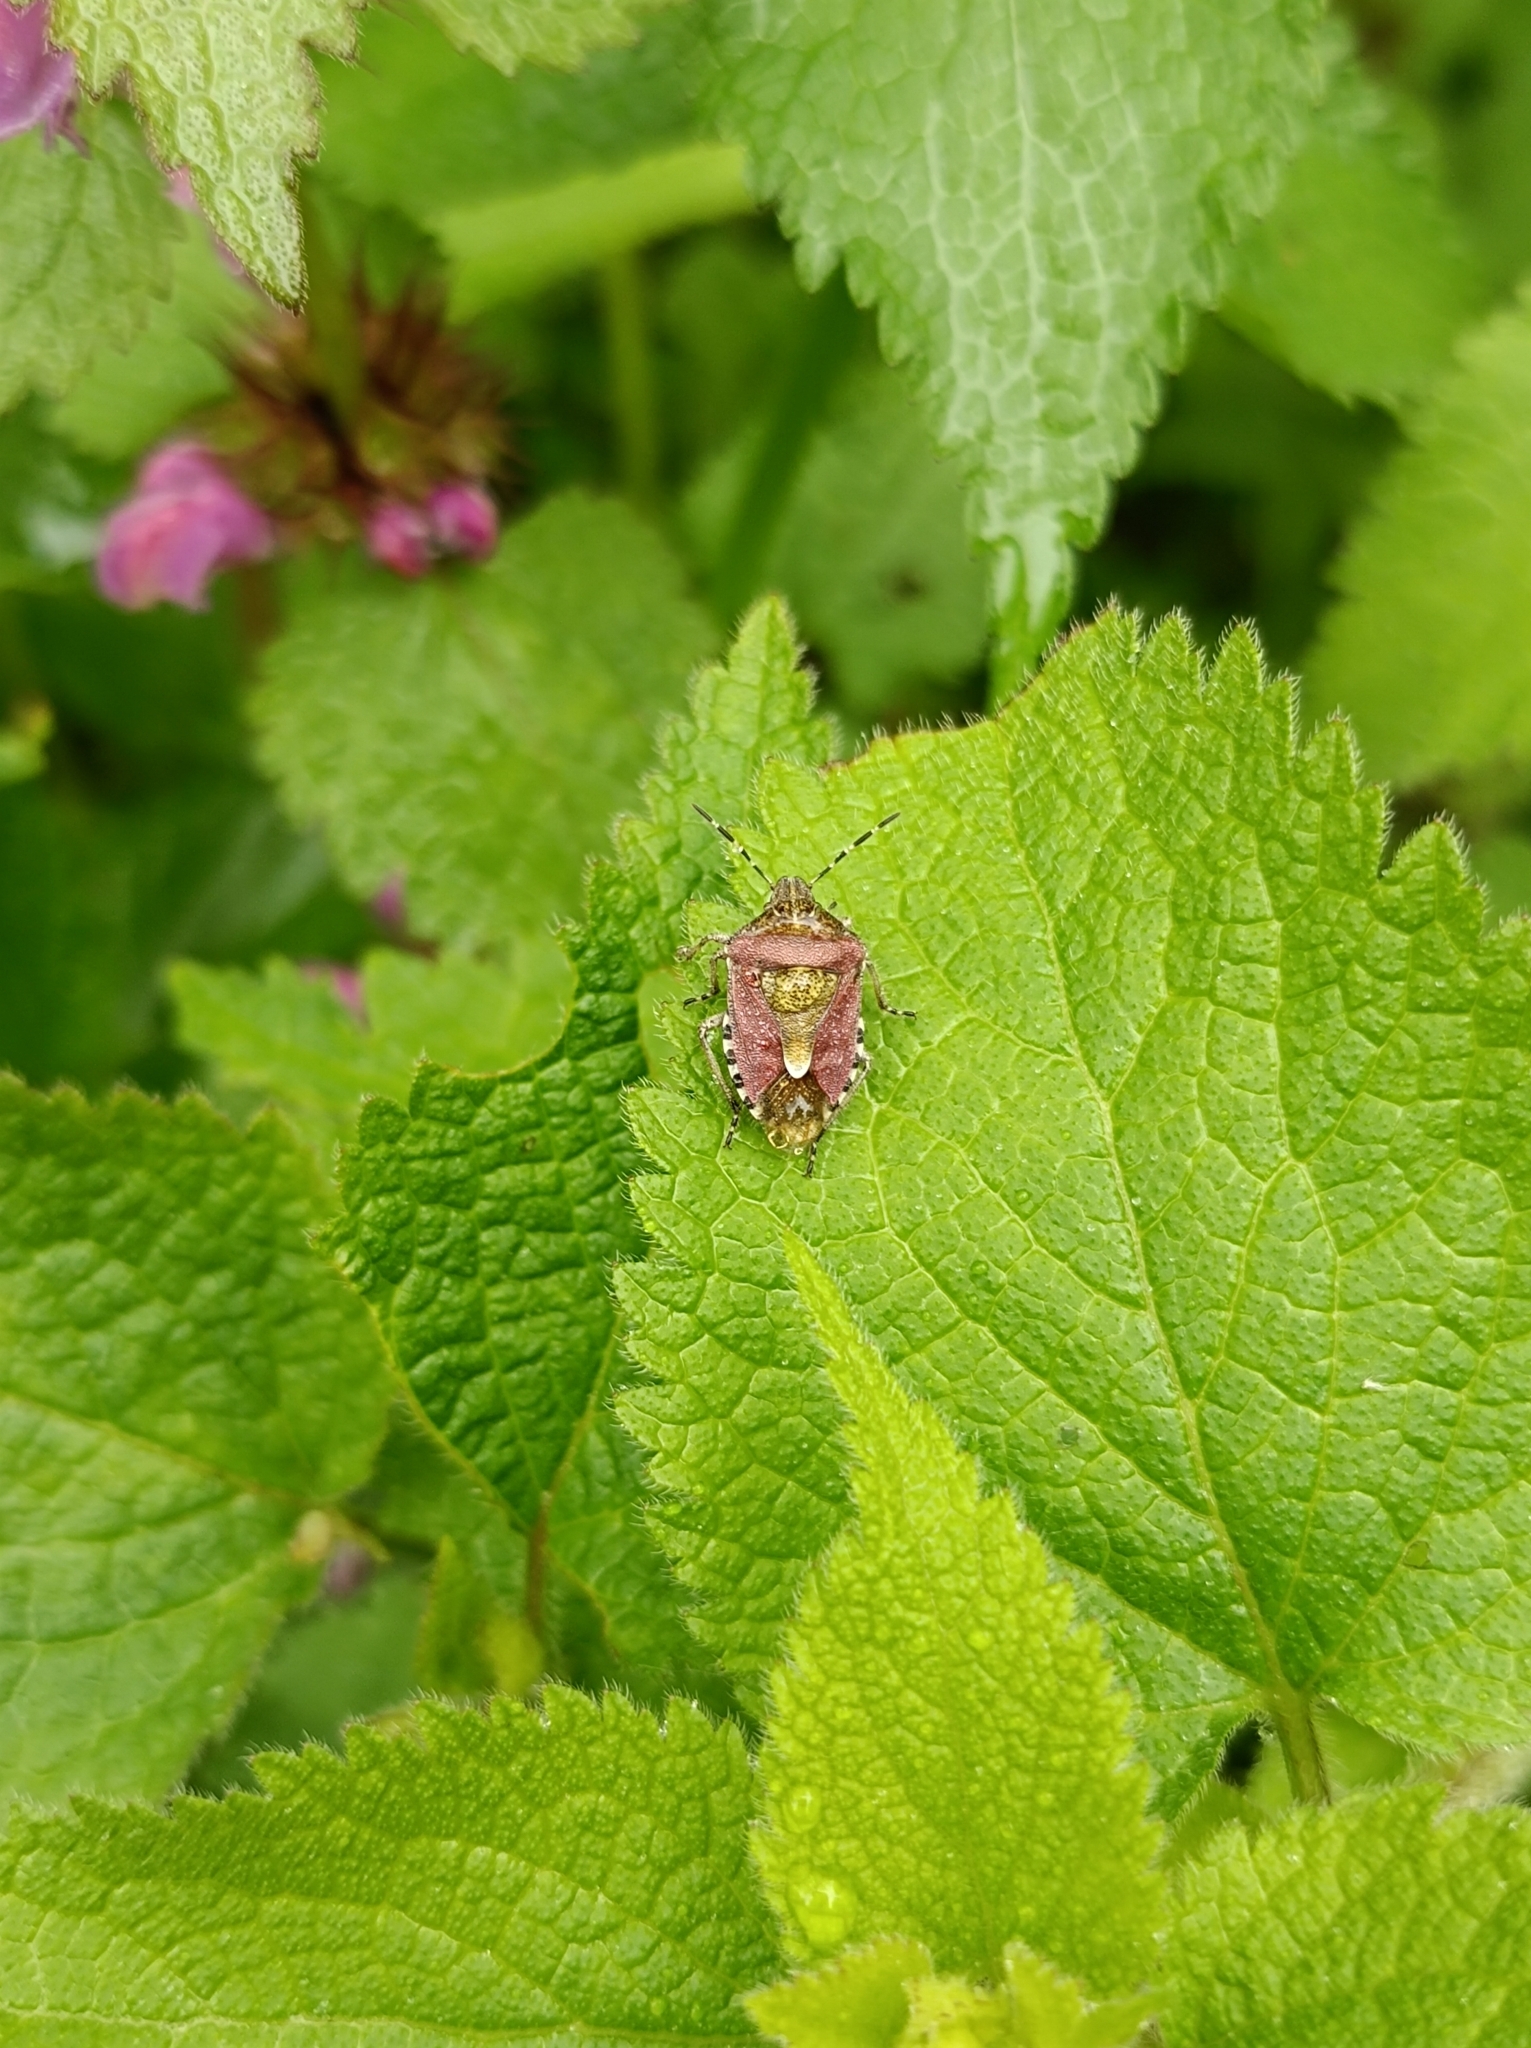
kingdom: Animalia
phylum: Arthropoda
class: Insecta
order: Hemiptera
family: Pentatomidae
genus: Dolycoris
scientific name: Dolycoris baccarum
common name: Sloe bug
